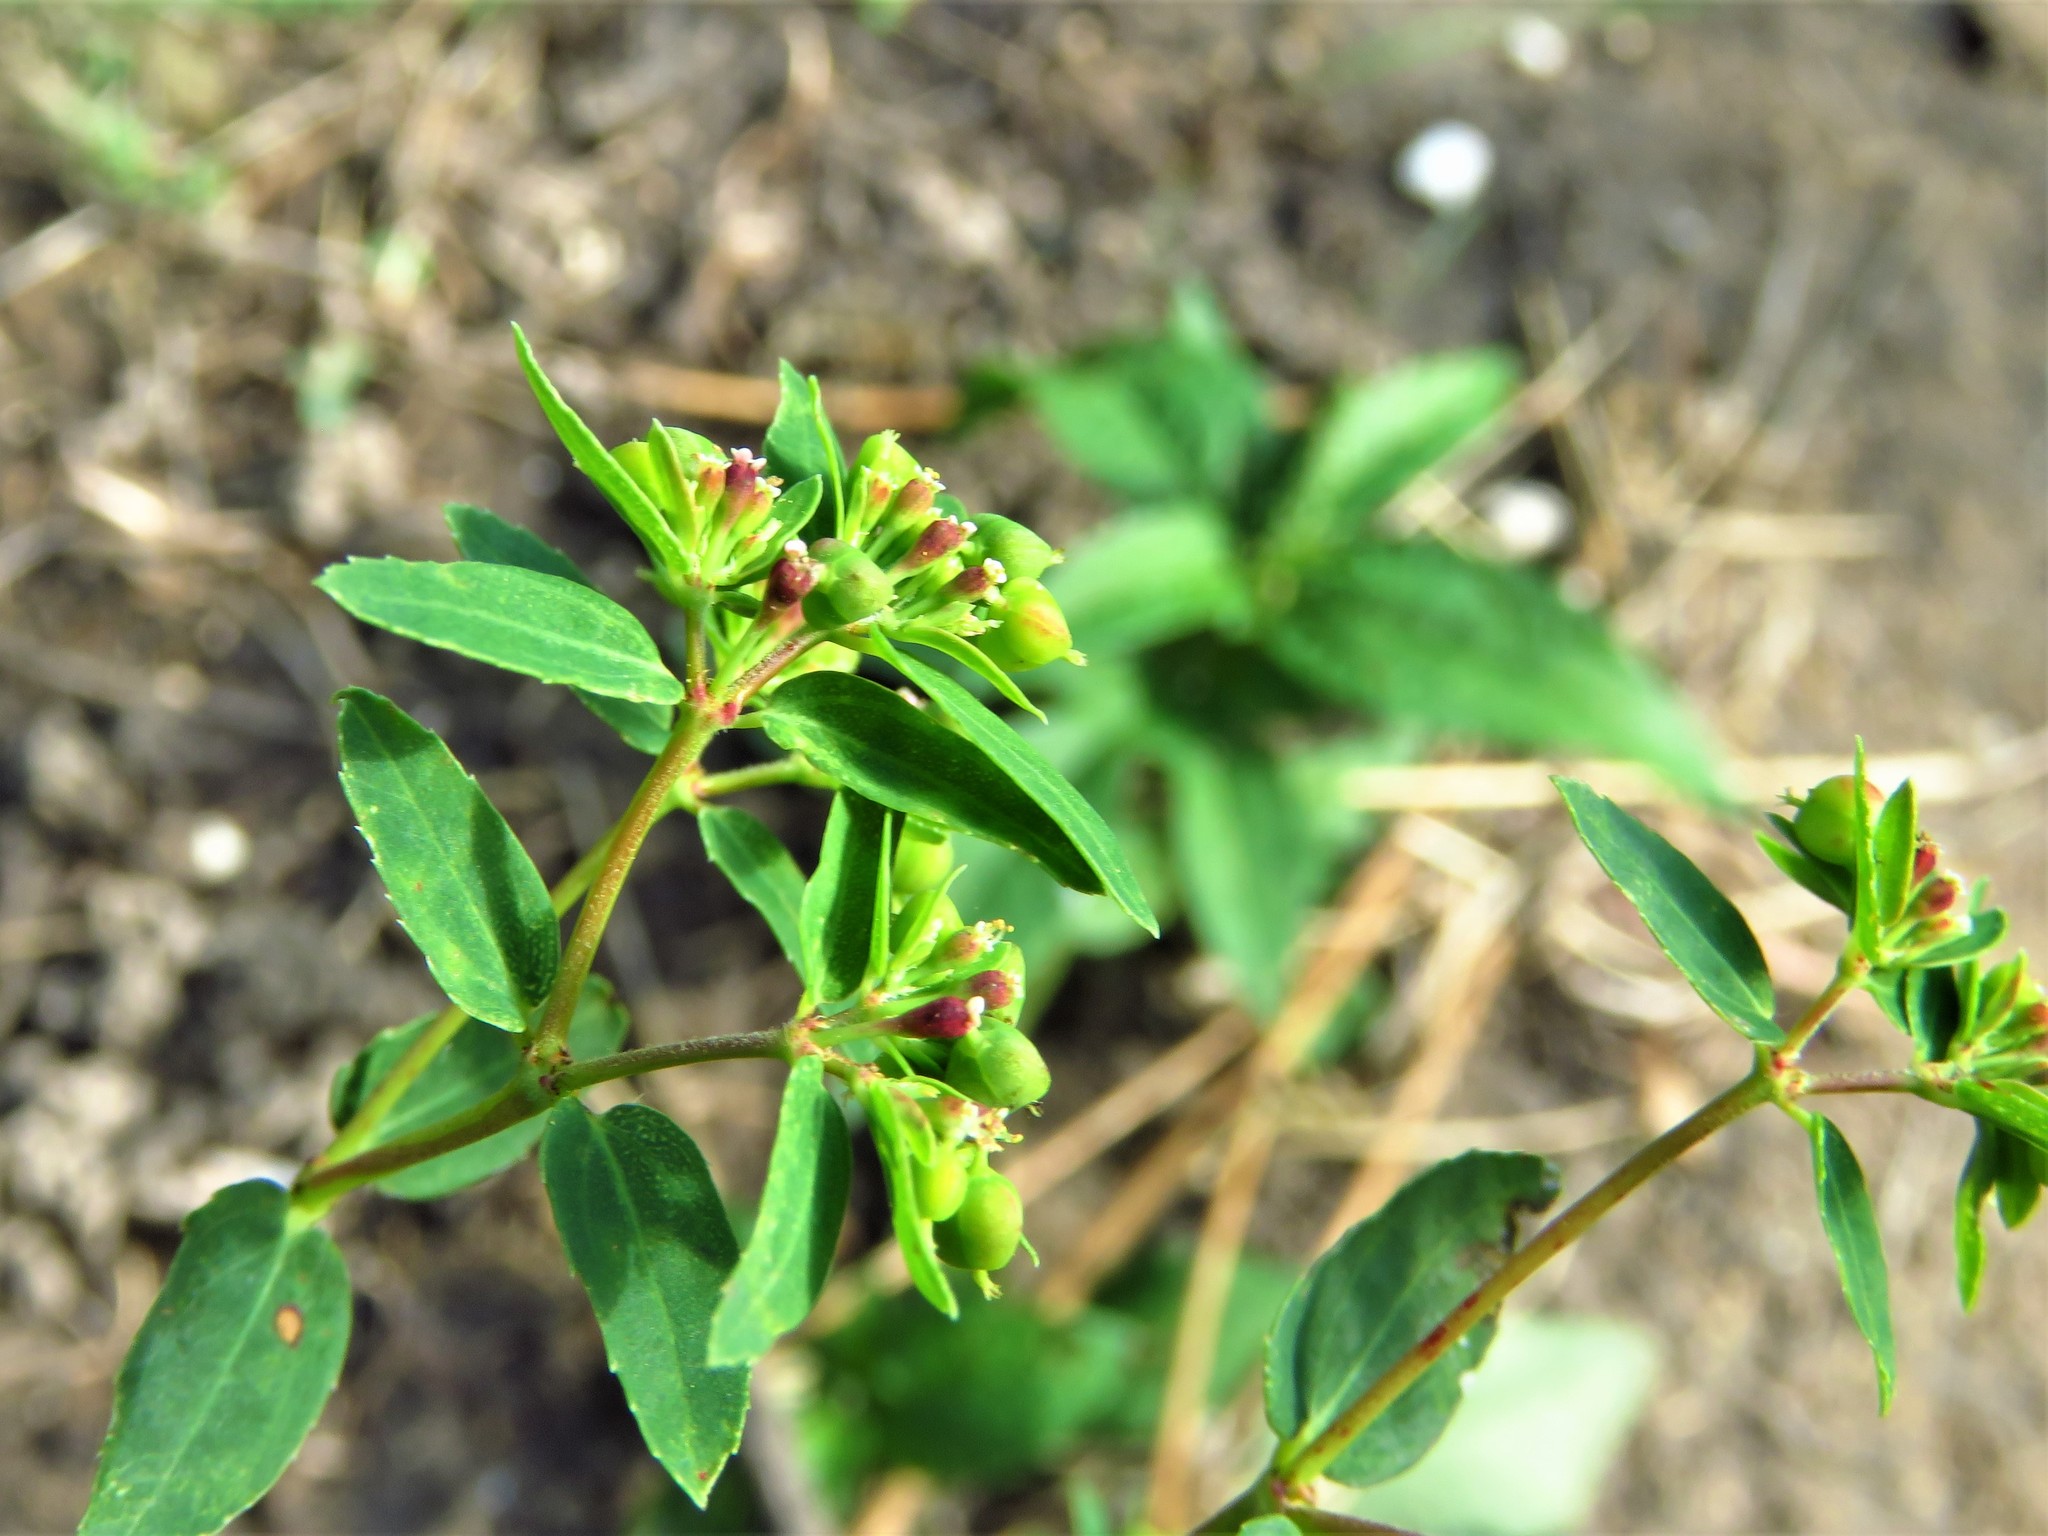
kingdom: Plantae
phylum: Tracheophyta
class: Magnoliopsida
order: Malpighiales
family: Euphorbiaceae
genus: Euphorbia
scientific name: Euphorbia nutans
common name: Eyebane
